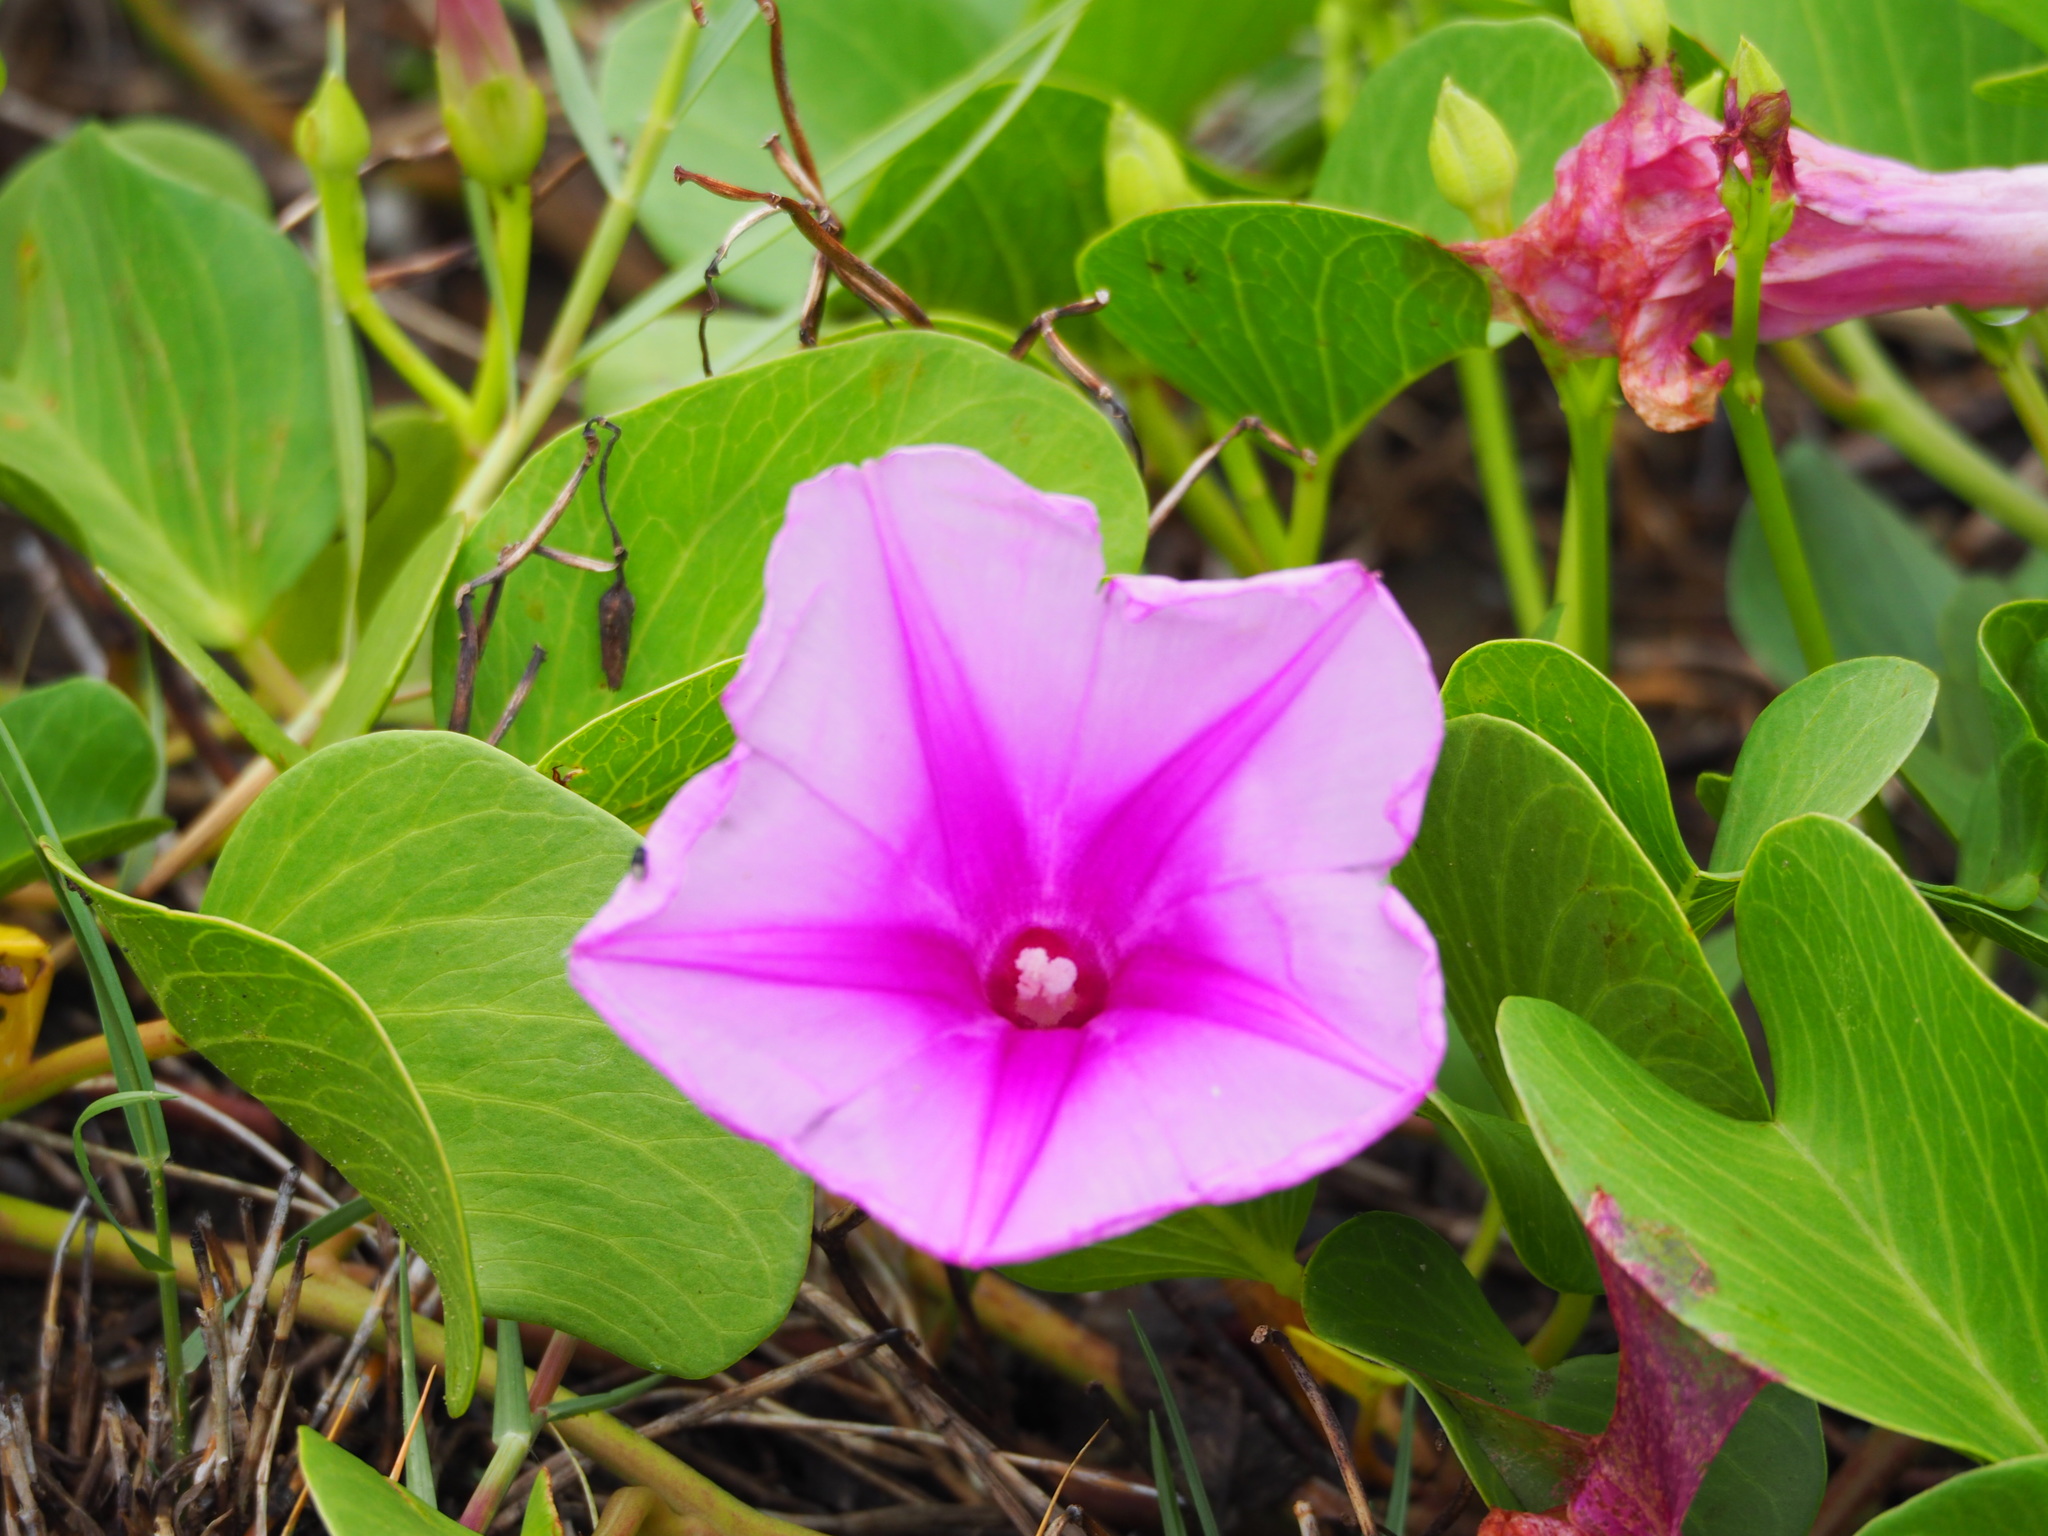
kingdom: Plantae
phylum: Tracheophyta
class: Magnoliopsida
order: Solanales
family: Convolvulaceae
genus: Ipomoea
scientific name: Ipomoea pes-caprae
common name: Beach morning glory
